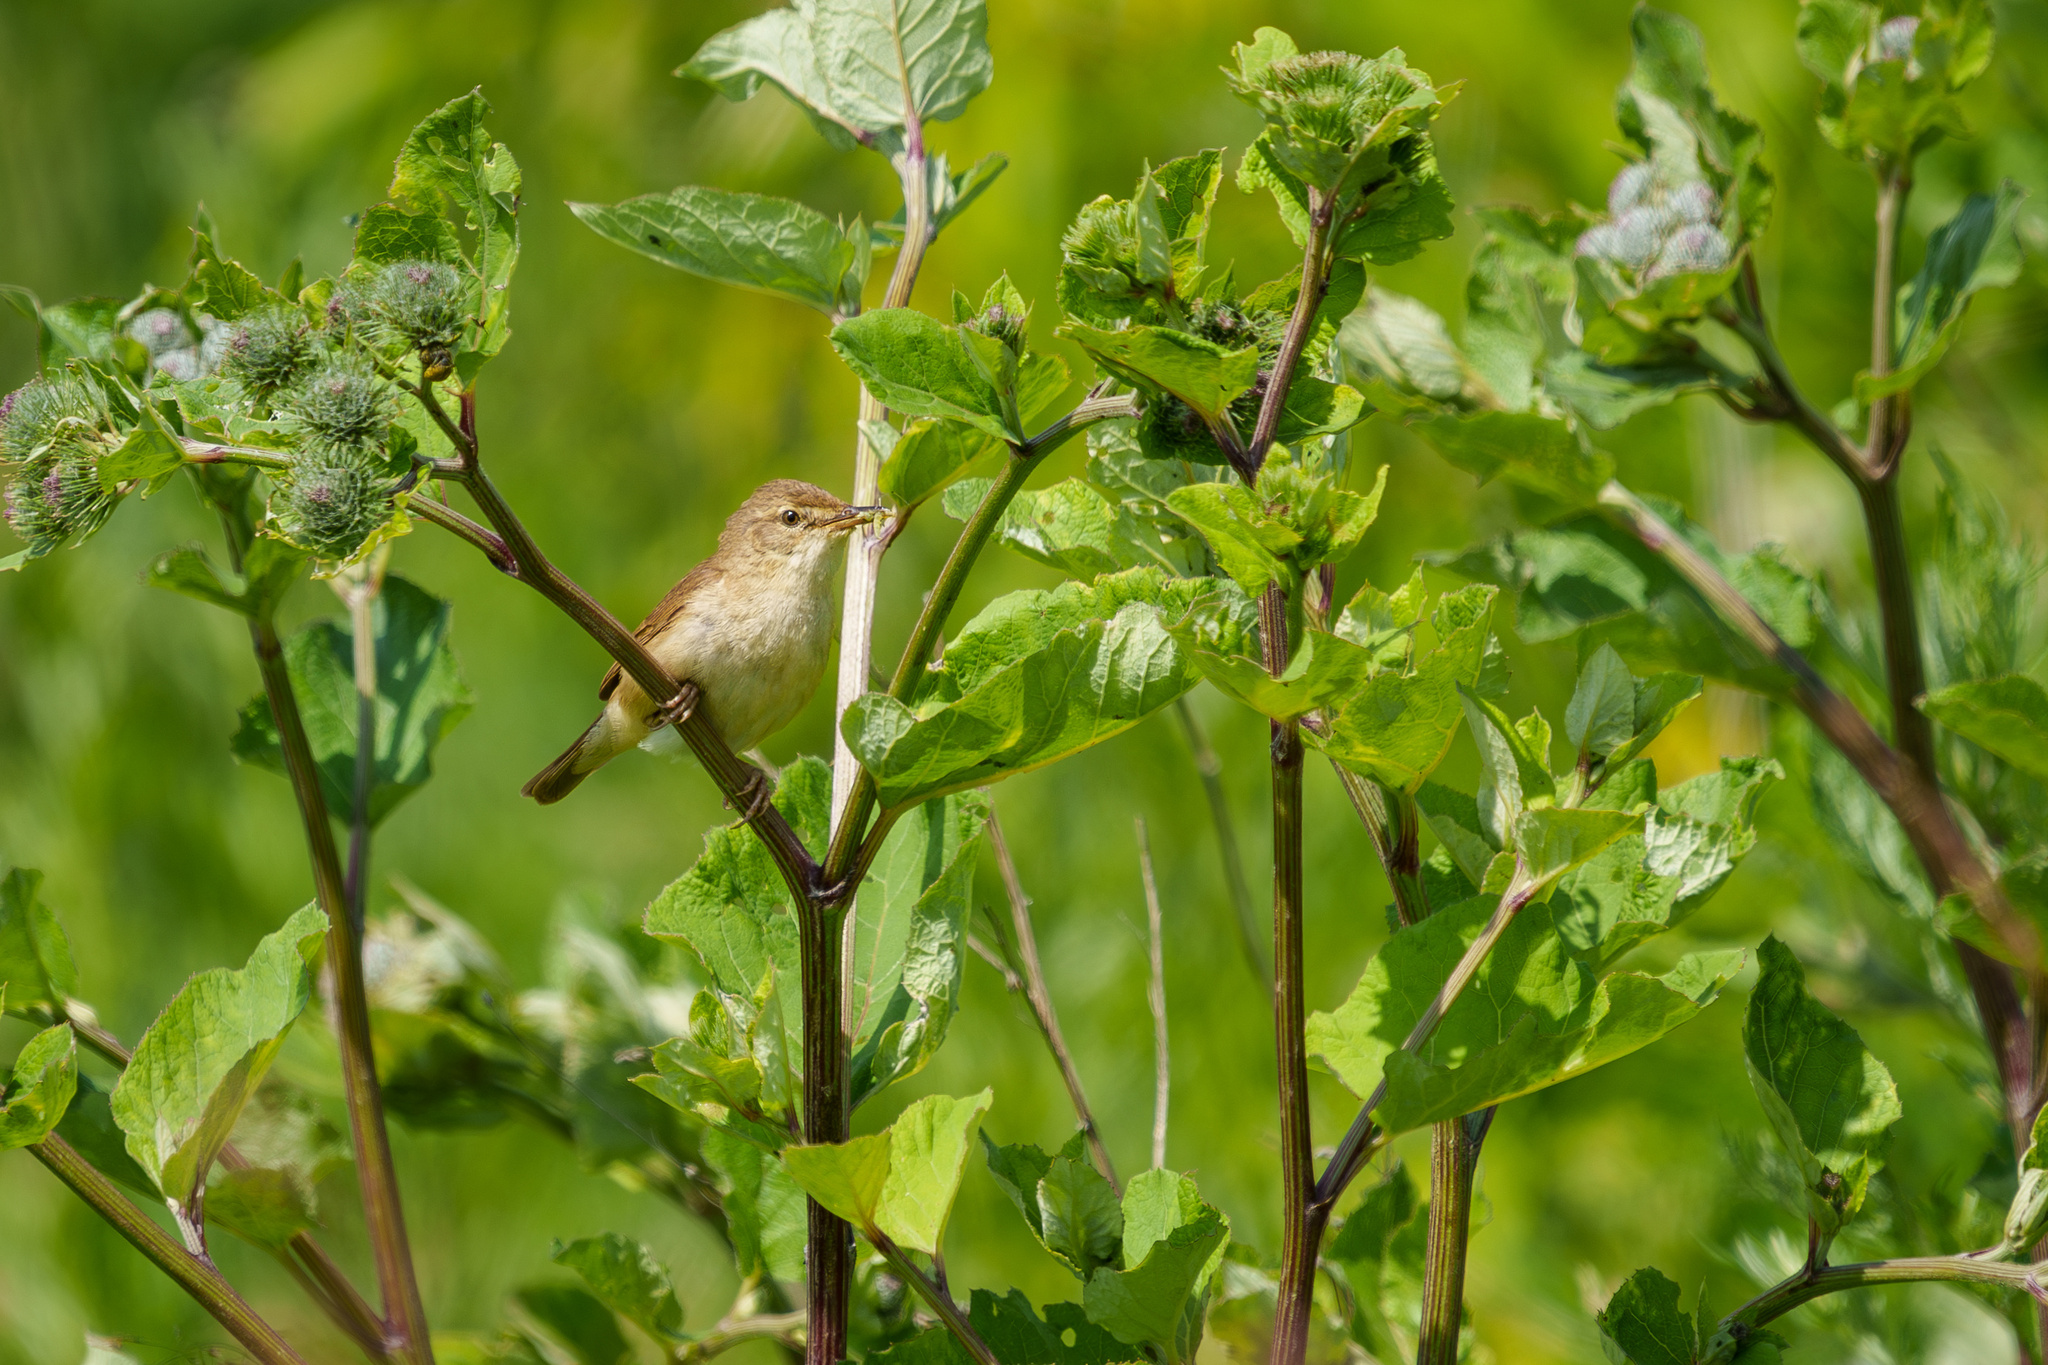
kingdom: Animalia
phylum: Chordata
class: Aves
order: Passeriformes
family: Acrocephalidae
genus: Acrocephalus
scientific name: Acrocephalus dumetorum
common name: Blyth's reed warbler
